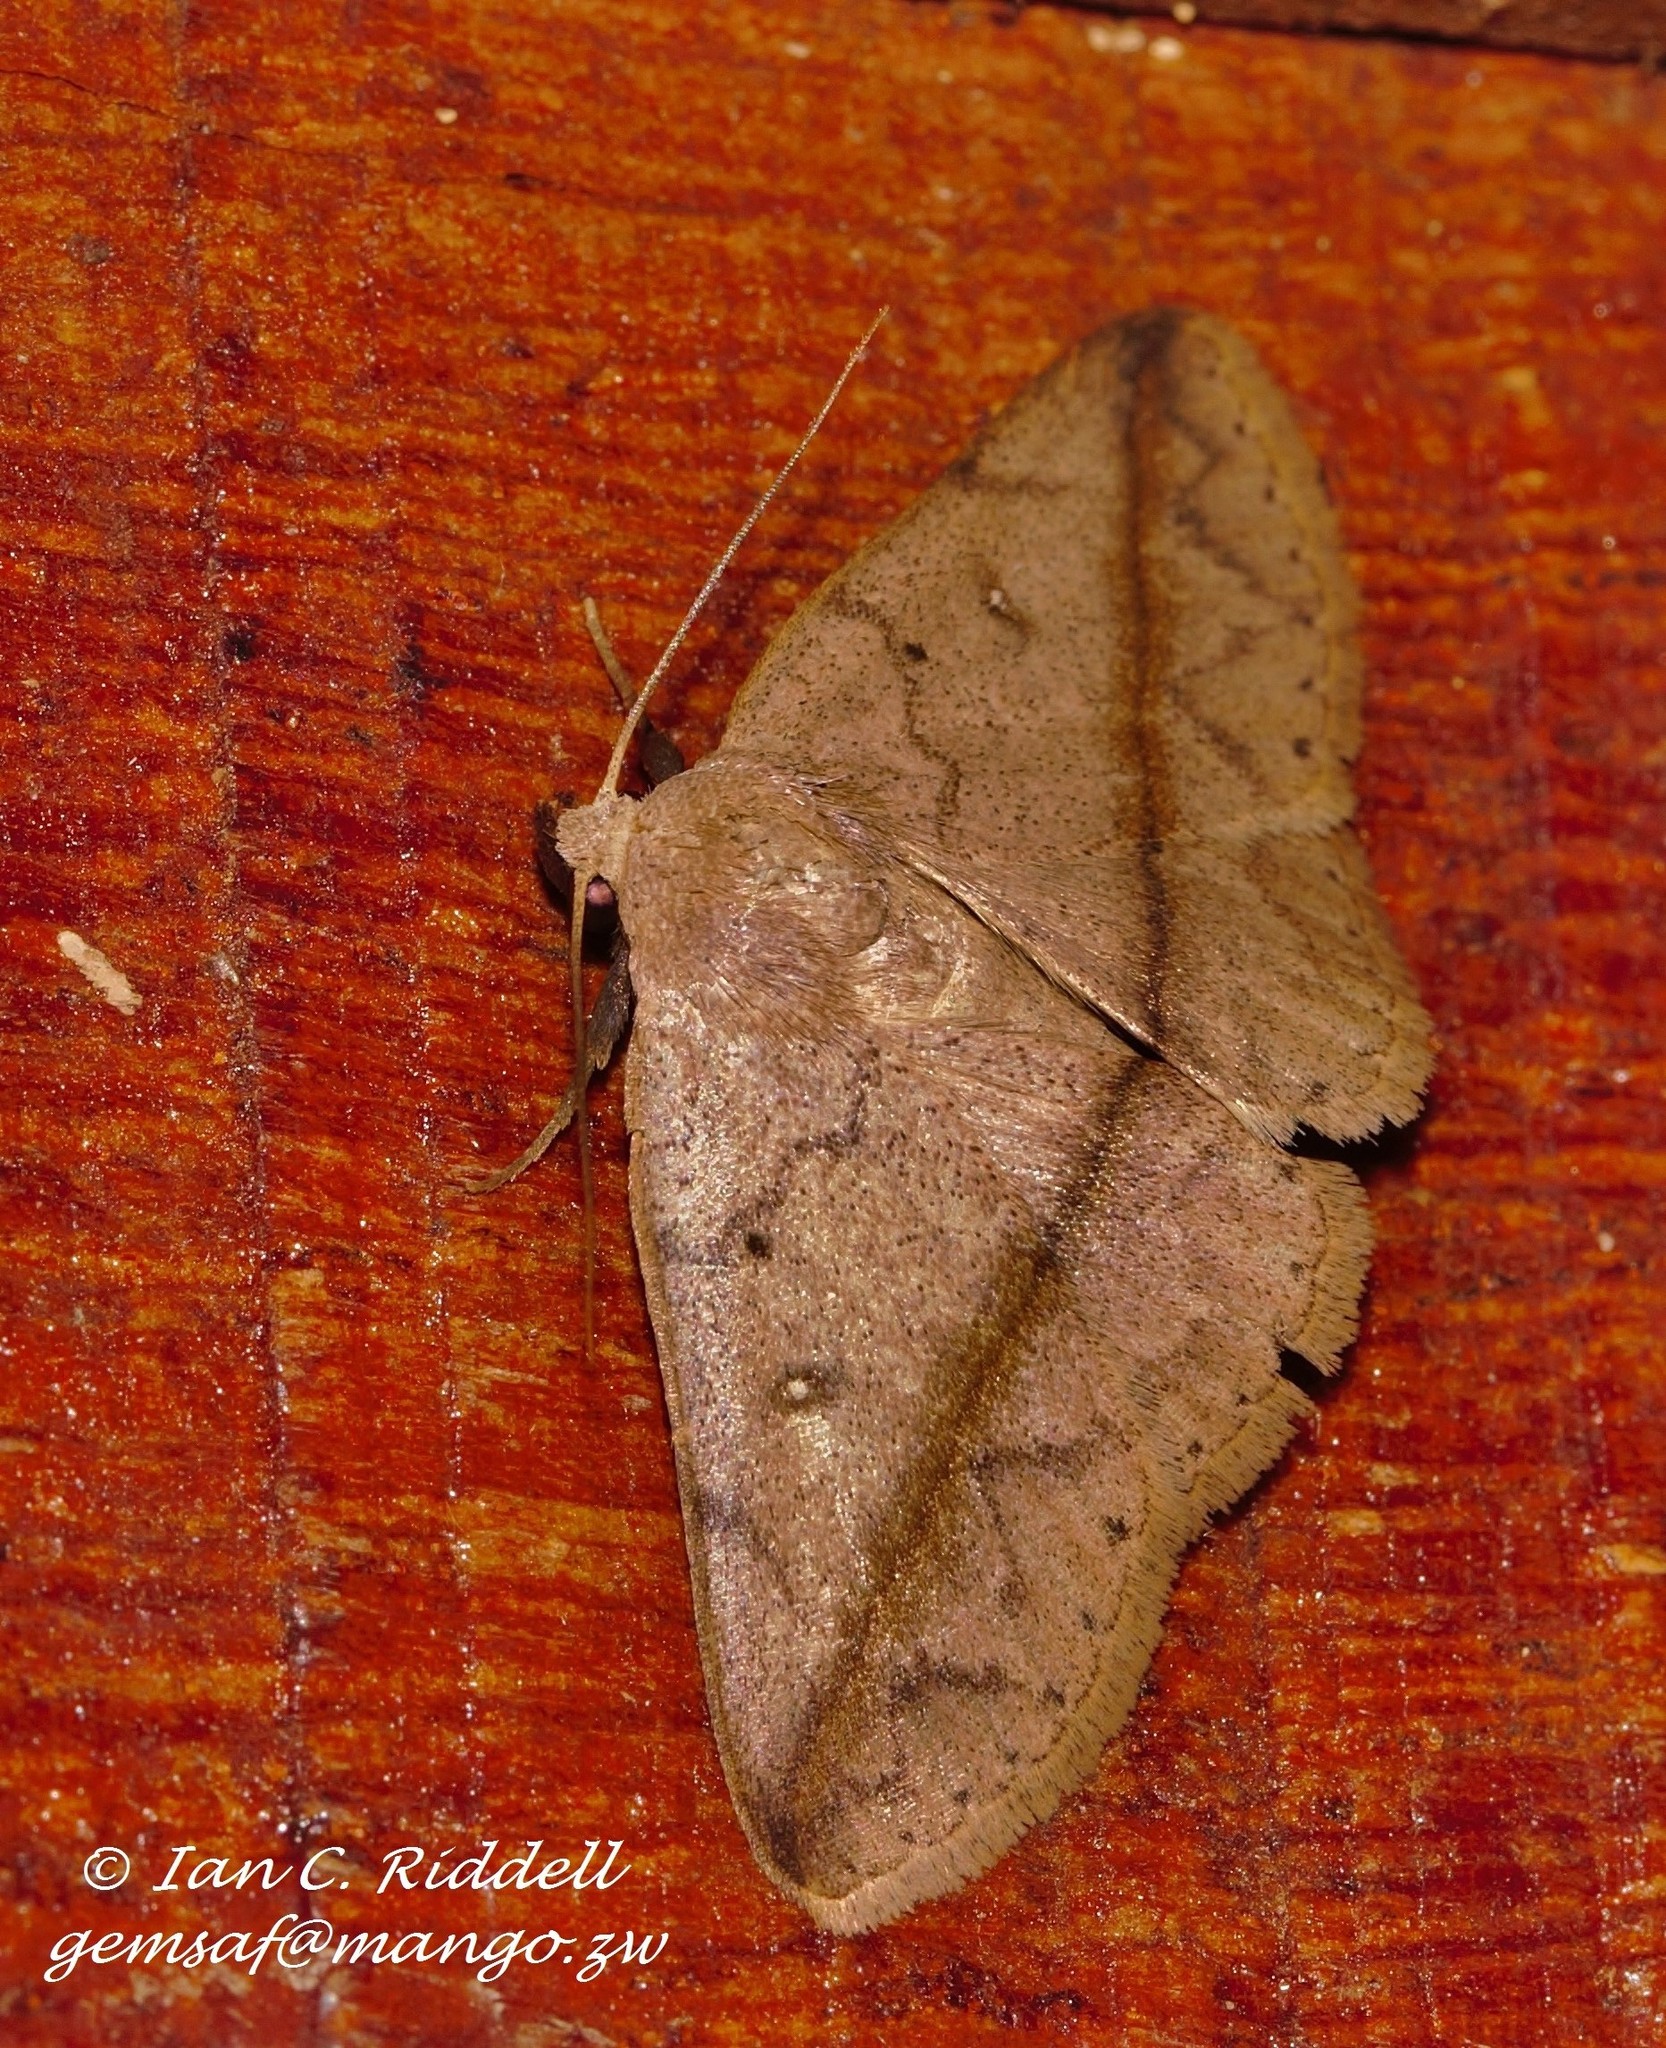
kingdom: Animalia
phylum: Arthropoda
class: Insecta
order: Lepidoptera
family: Erebidae
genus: Ugia
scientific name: Ugia taeniata
